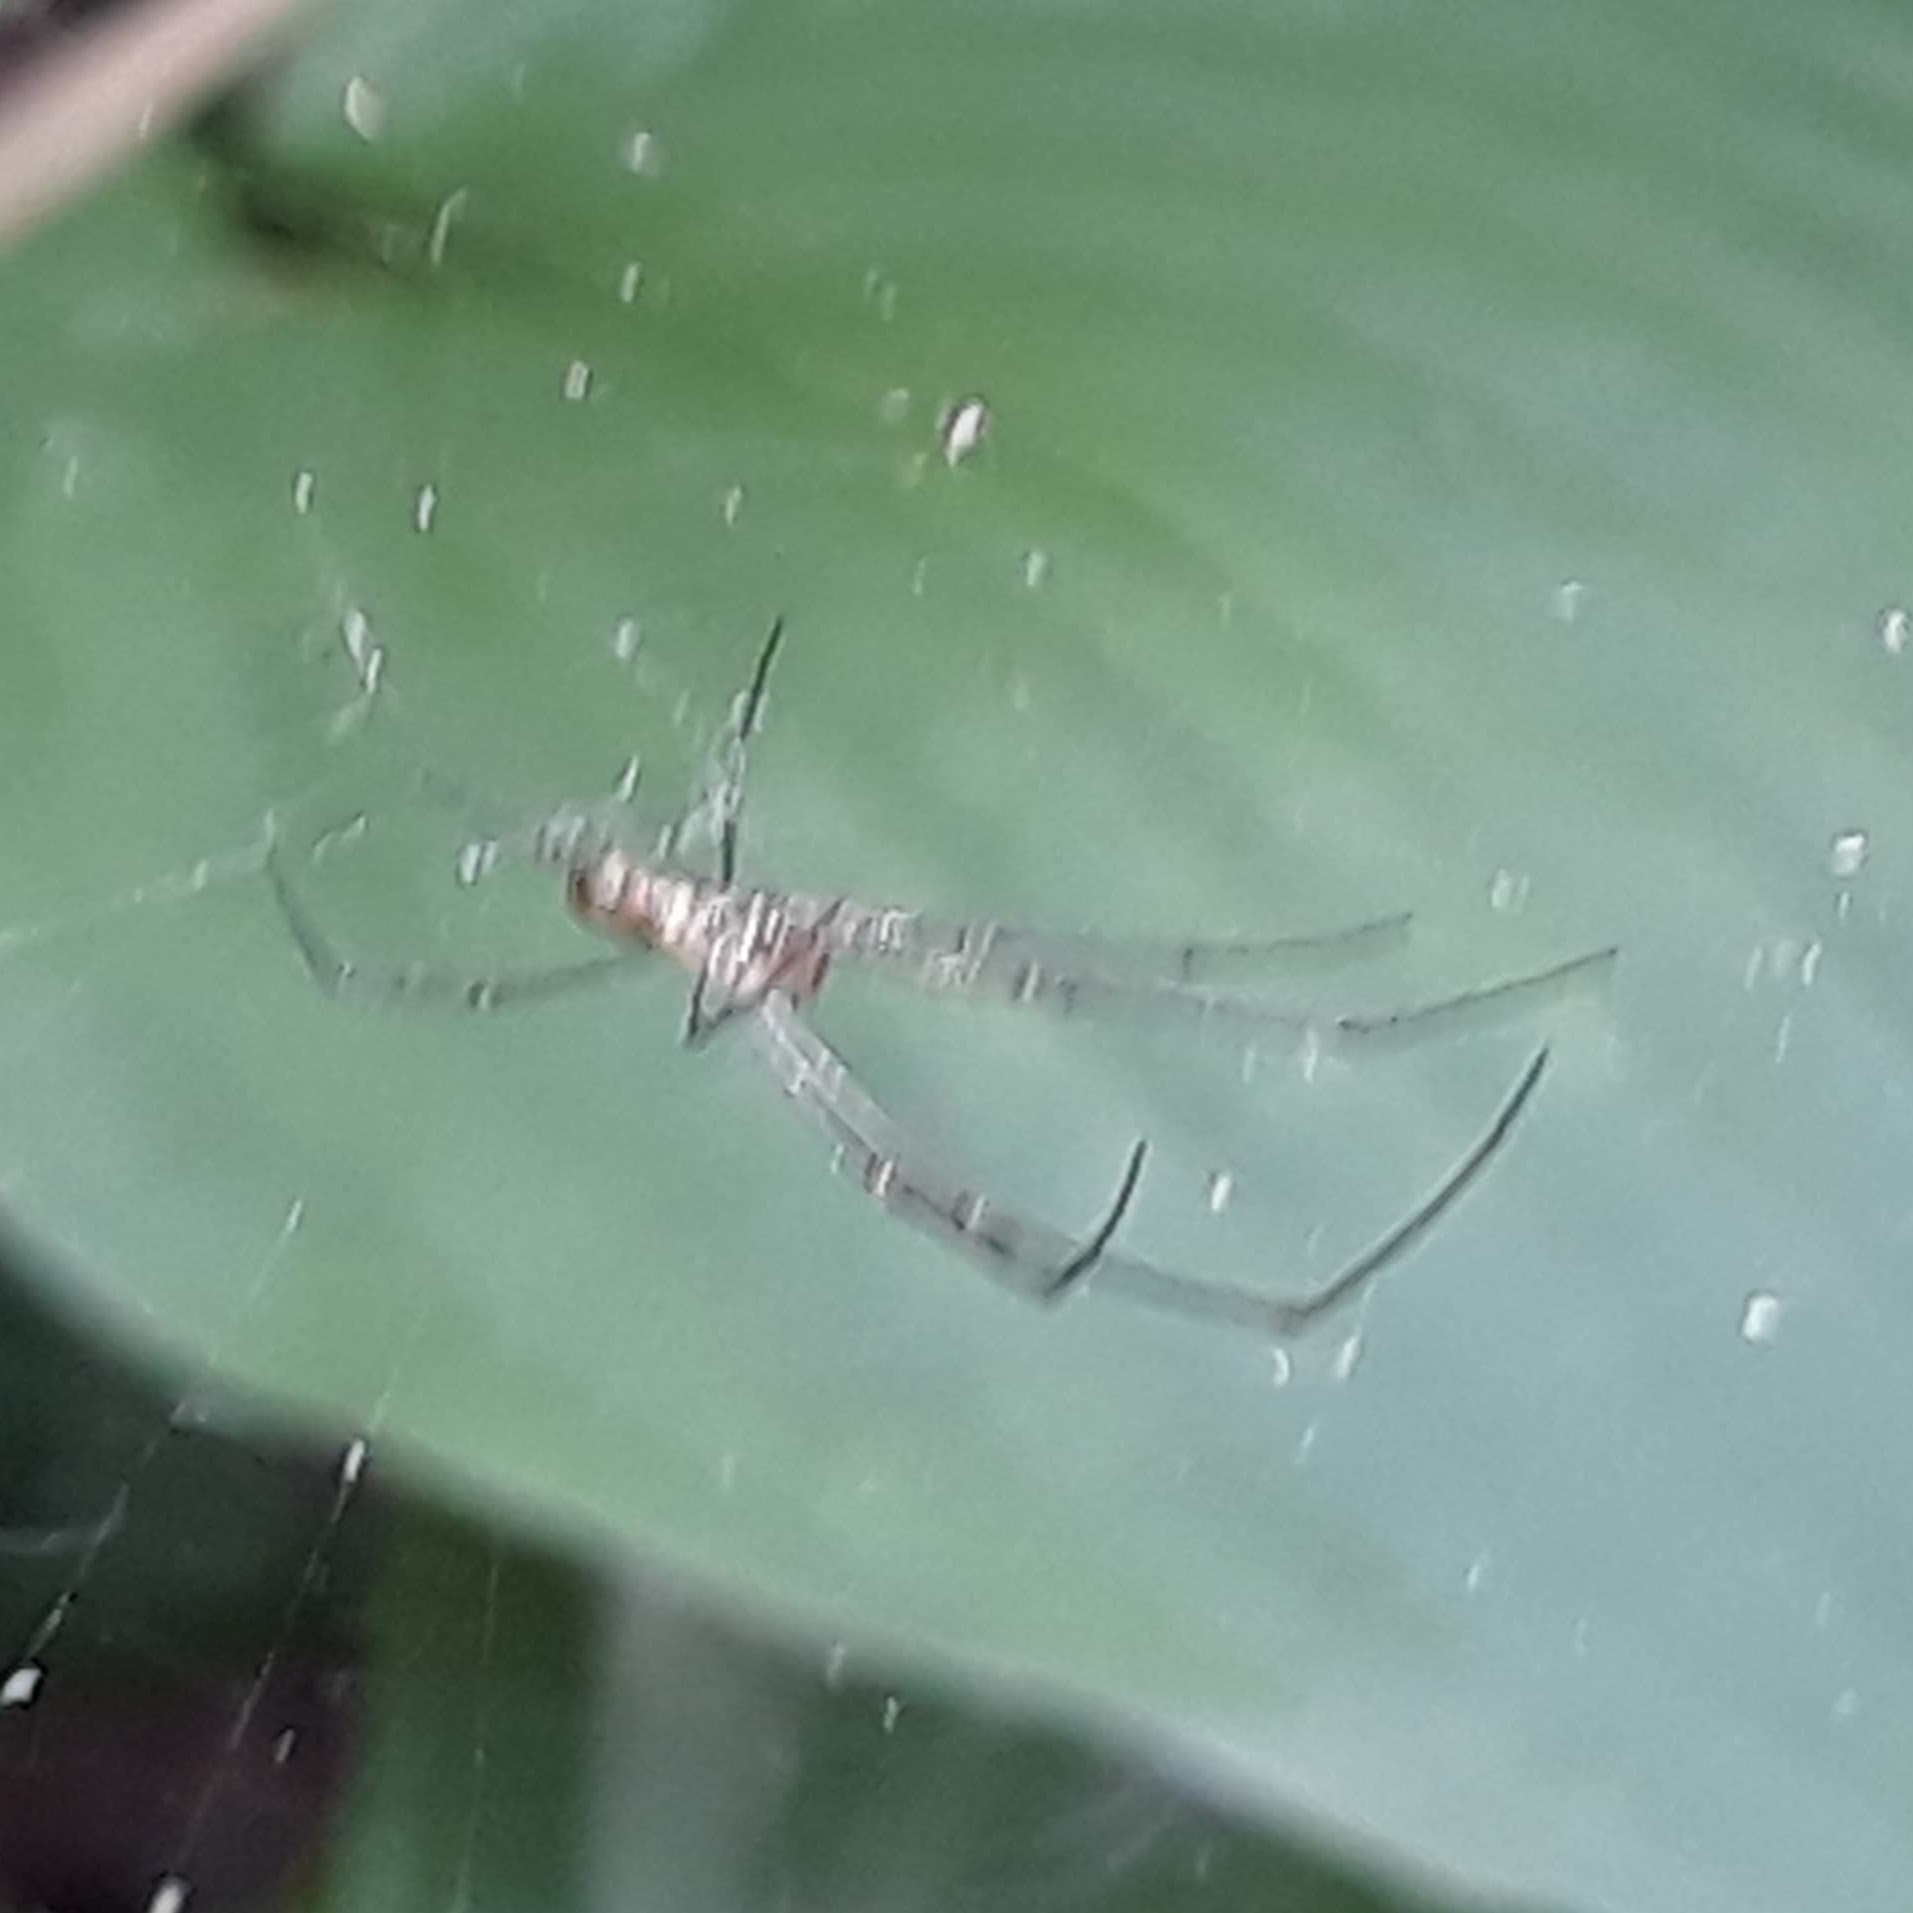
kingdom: Animalia
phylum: Arthropoda
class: Arachnida
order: Araneae
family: Tetragnathidae
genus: Leucauge
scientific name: Leucauge venusta
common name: Longjawed orb weavers
